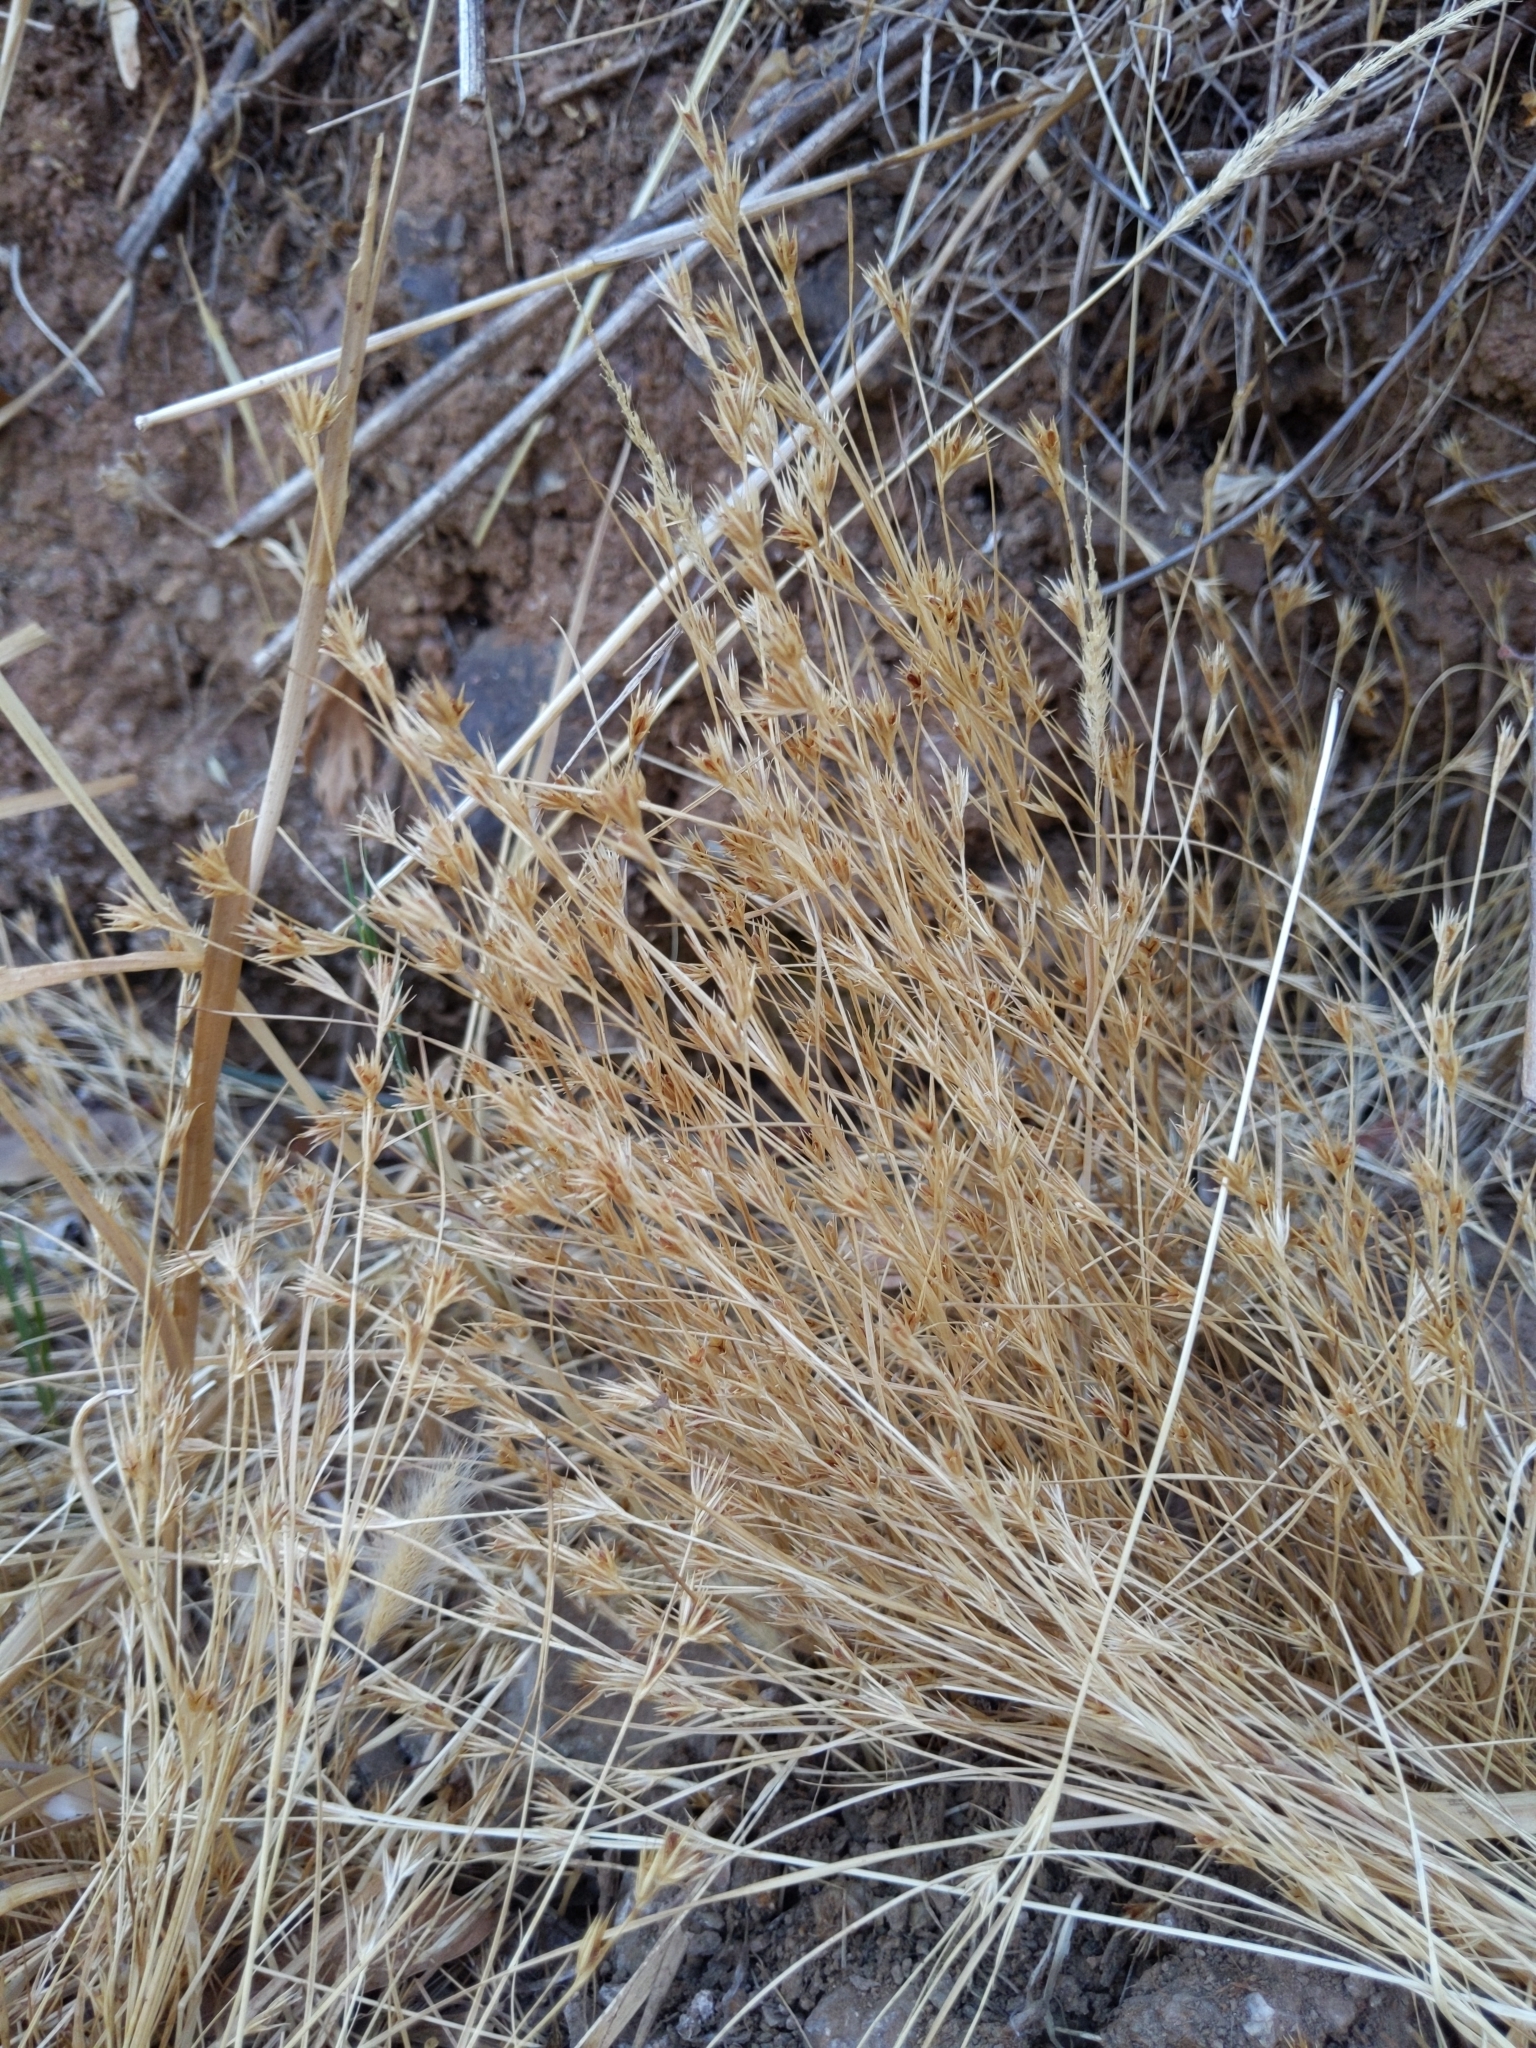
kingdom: Plantae
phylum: Tracheophyta
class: Liliopsida
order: Poales
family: Juncaceae
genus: Juncus
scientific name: Juncus bufonius
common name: Toad rush
